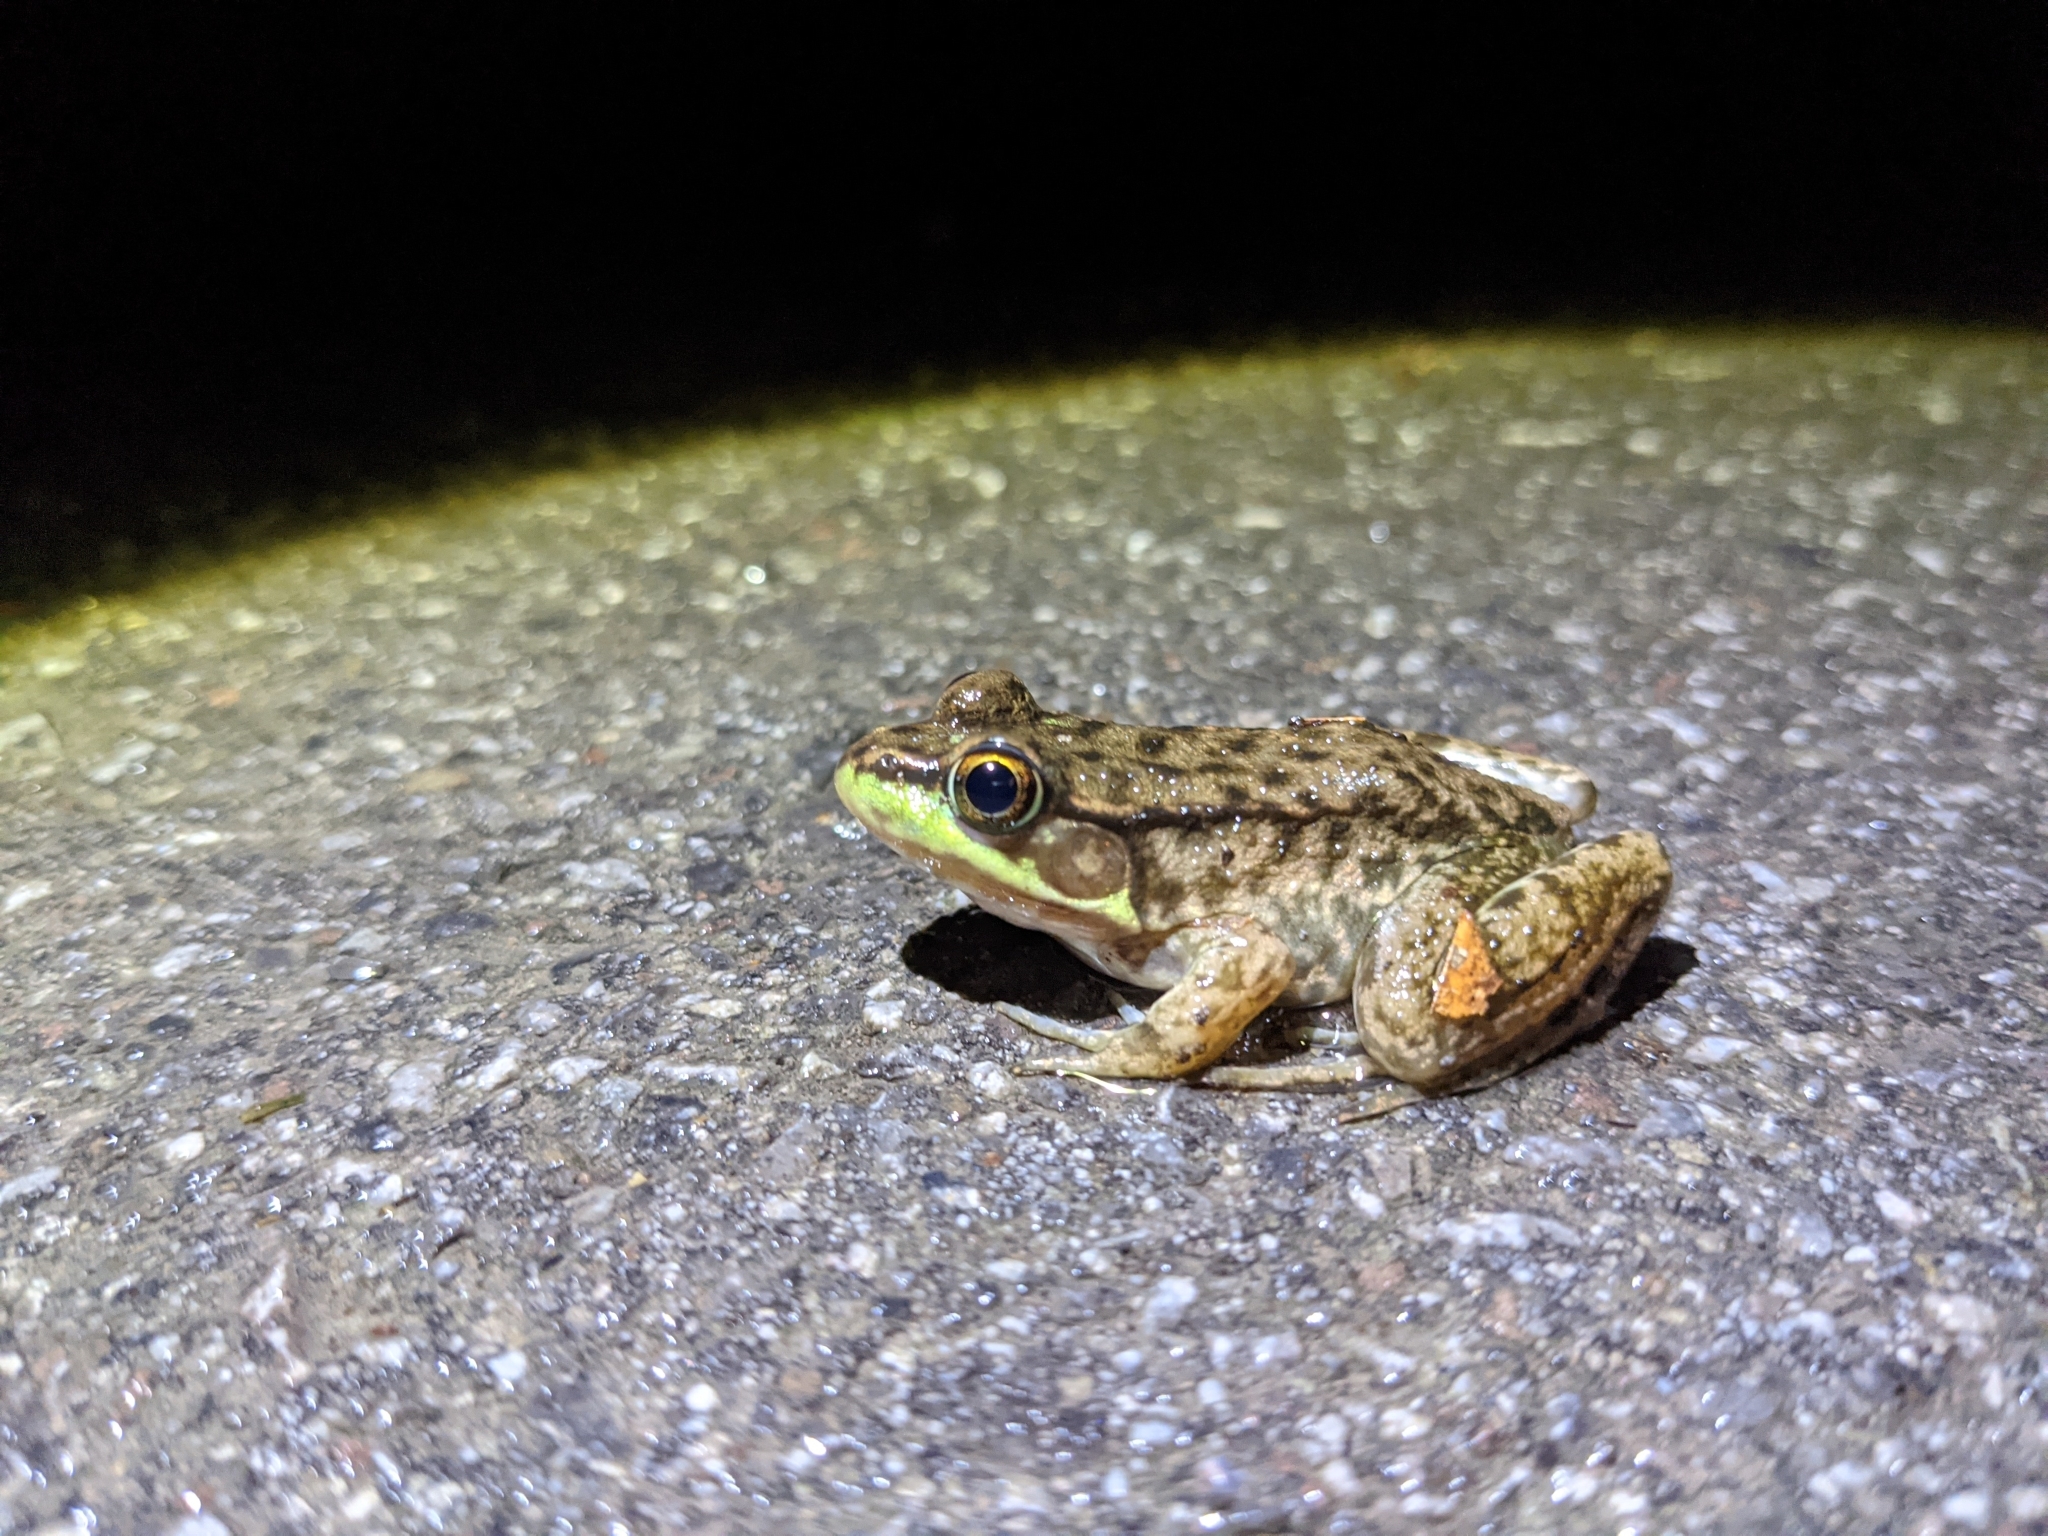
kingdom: Animalia
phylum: Chordata
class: Amphibia
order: Anura
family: Ranidae
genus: Lithobates
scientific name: Lithobates clamitans
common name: Green frog
